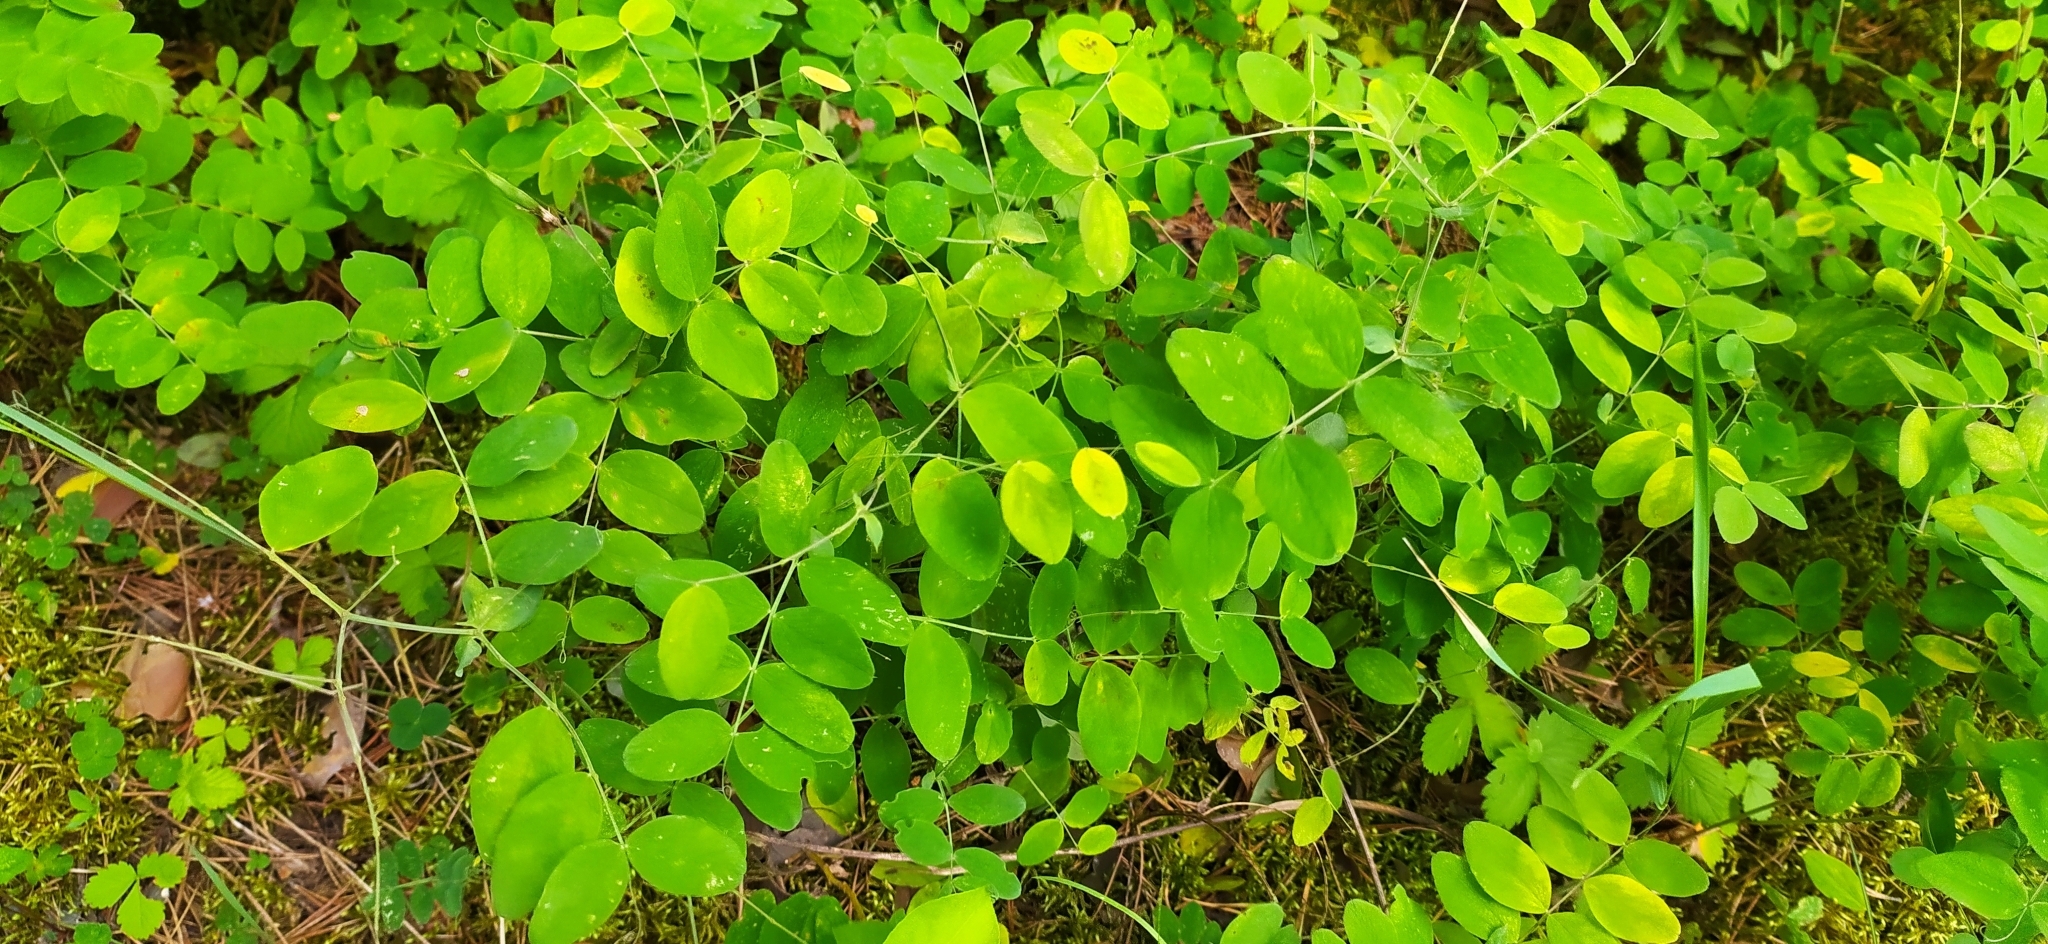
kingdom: Plantae
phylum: Tracheophyta
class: Magnoliopsida
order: Fabales
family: Fabaceae
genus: Lathyrus
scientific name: Lathyrus humilis
